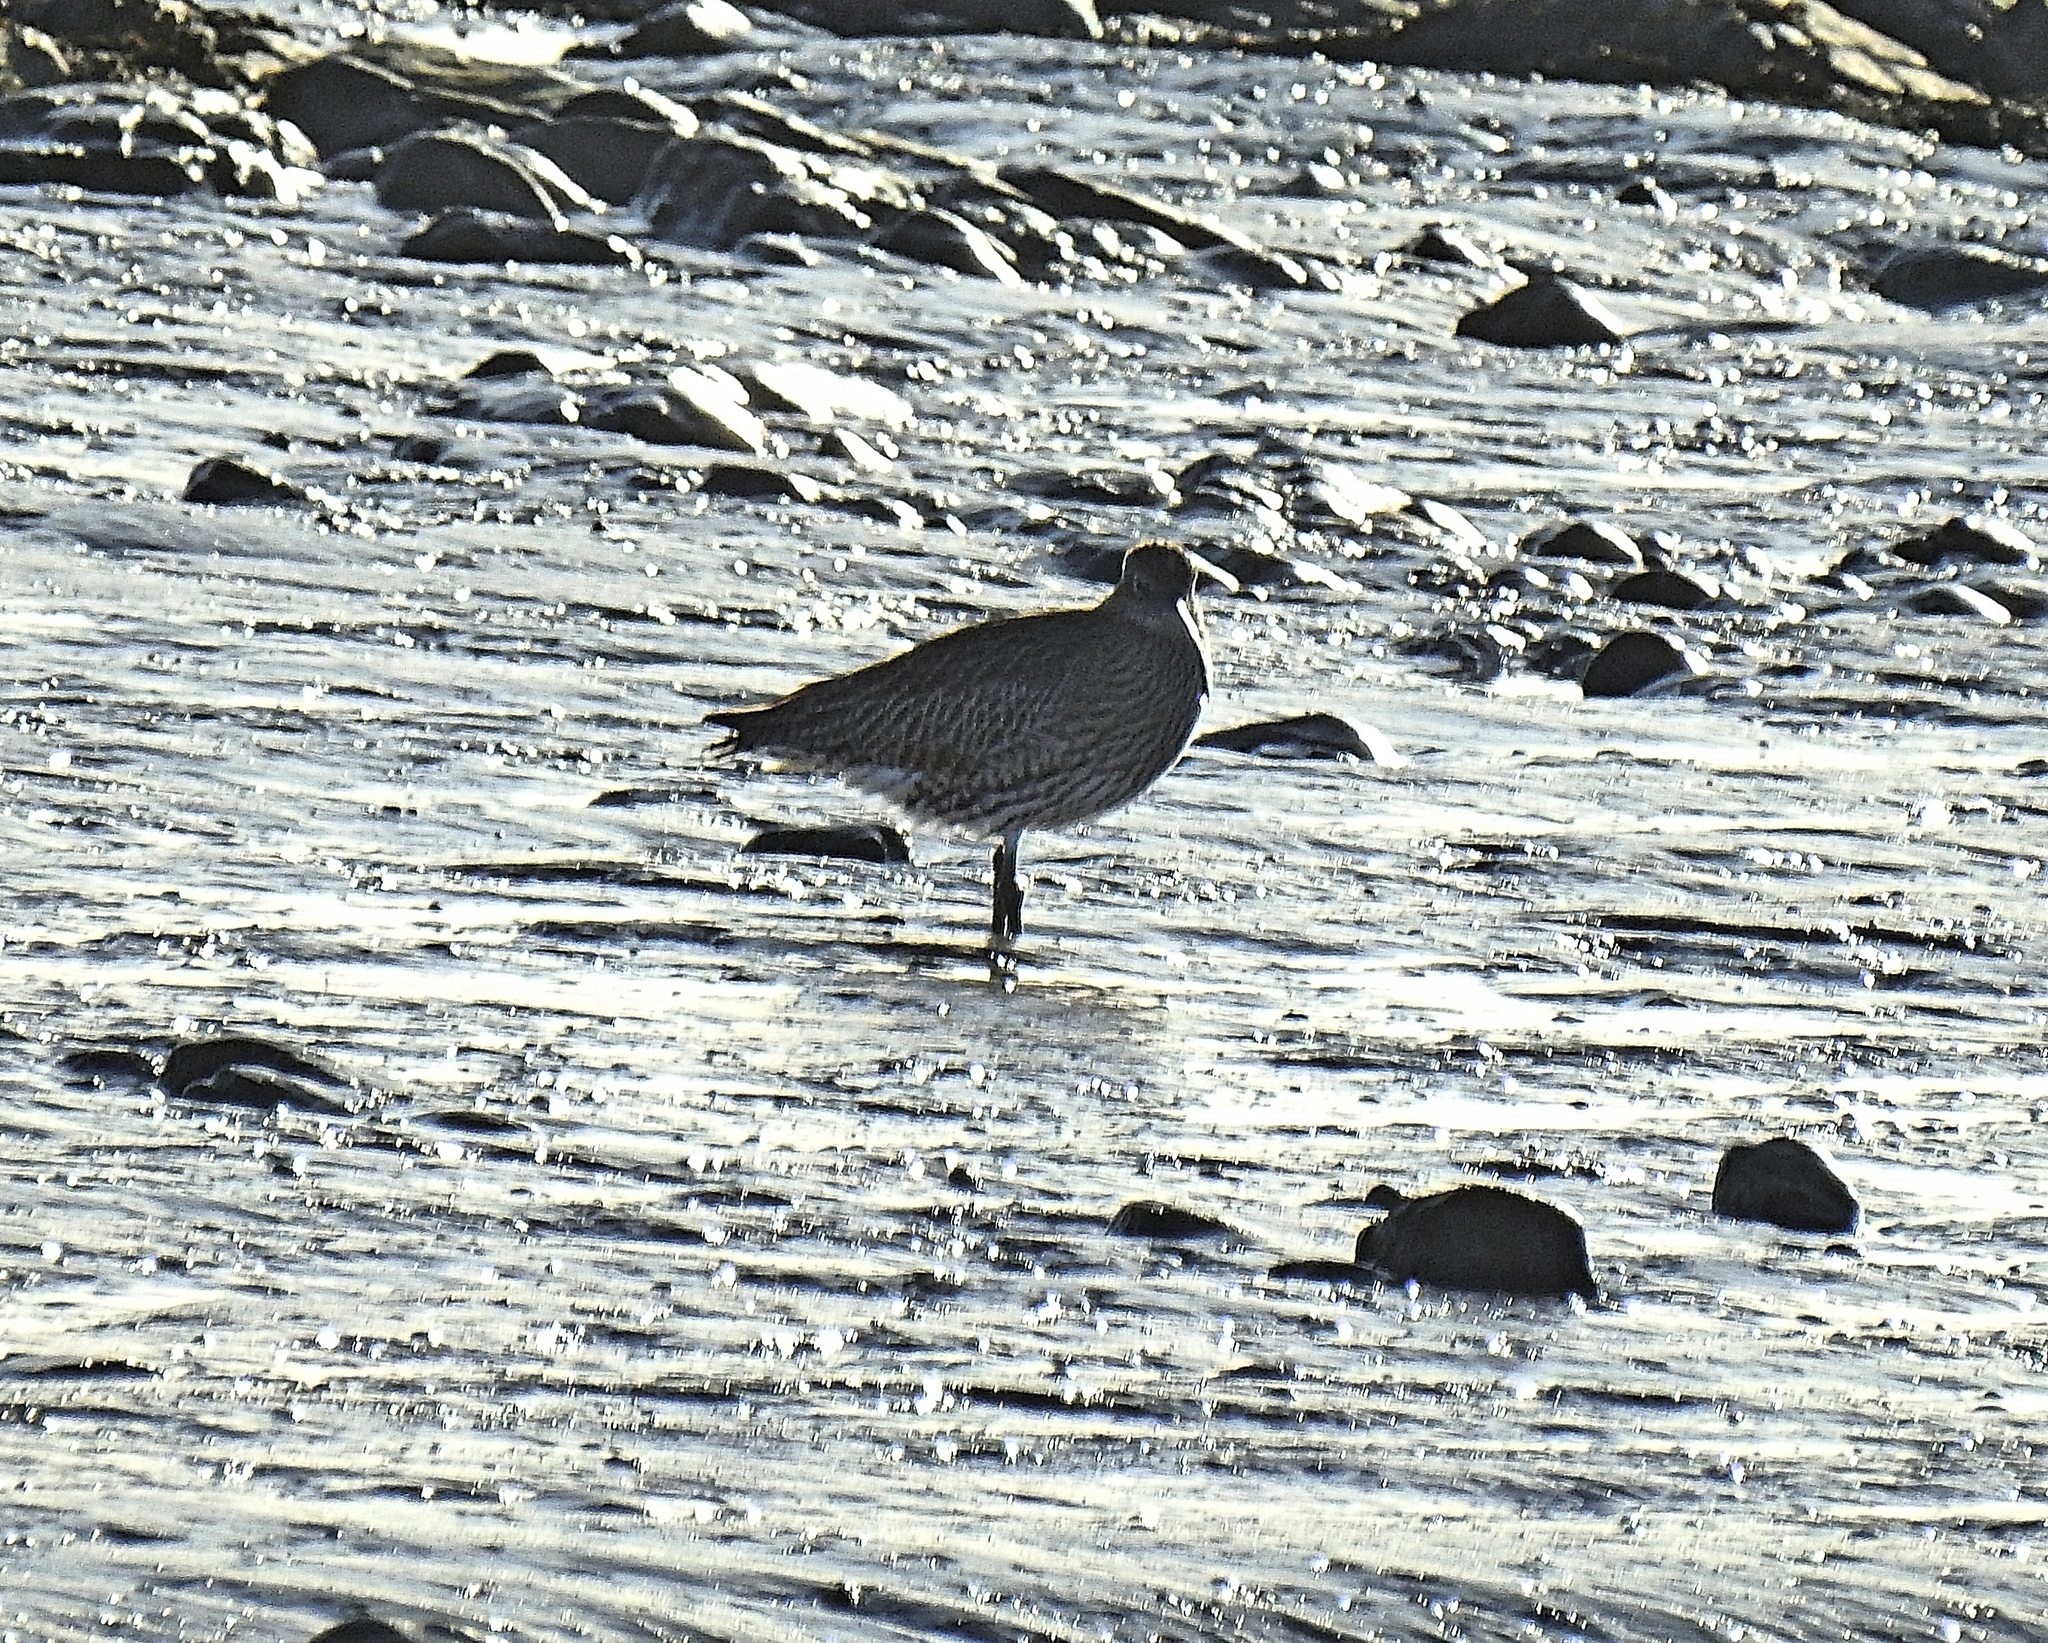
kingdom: Animalia
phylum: Chordata
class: Aves
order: Charadriiformes
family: Scolopacidae
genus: Numenius
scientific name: Numenius arquata
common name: Eurasian curlew
